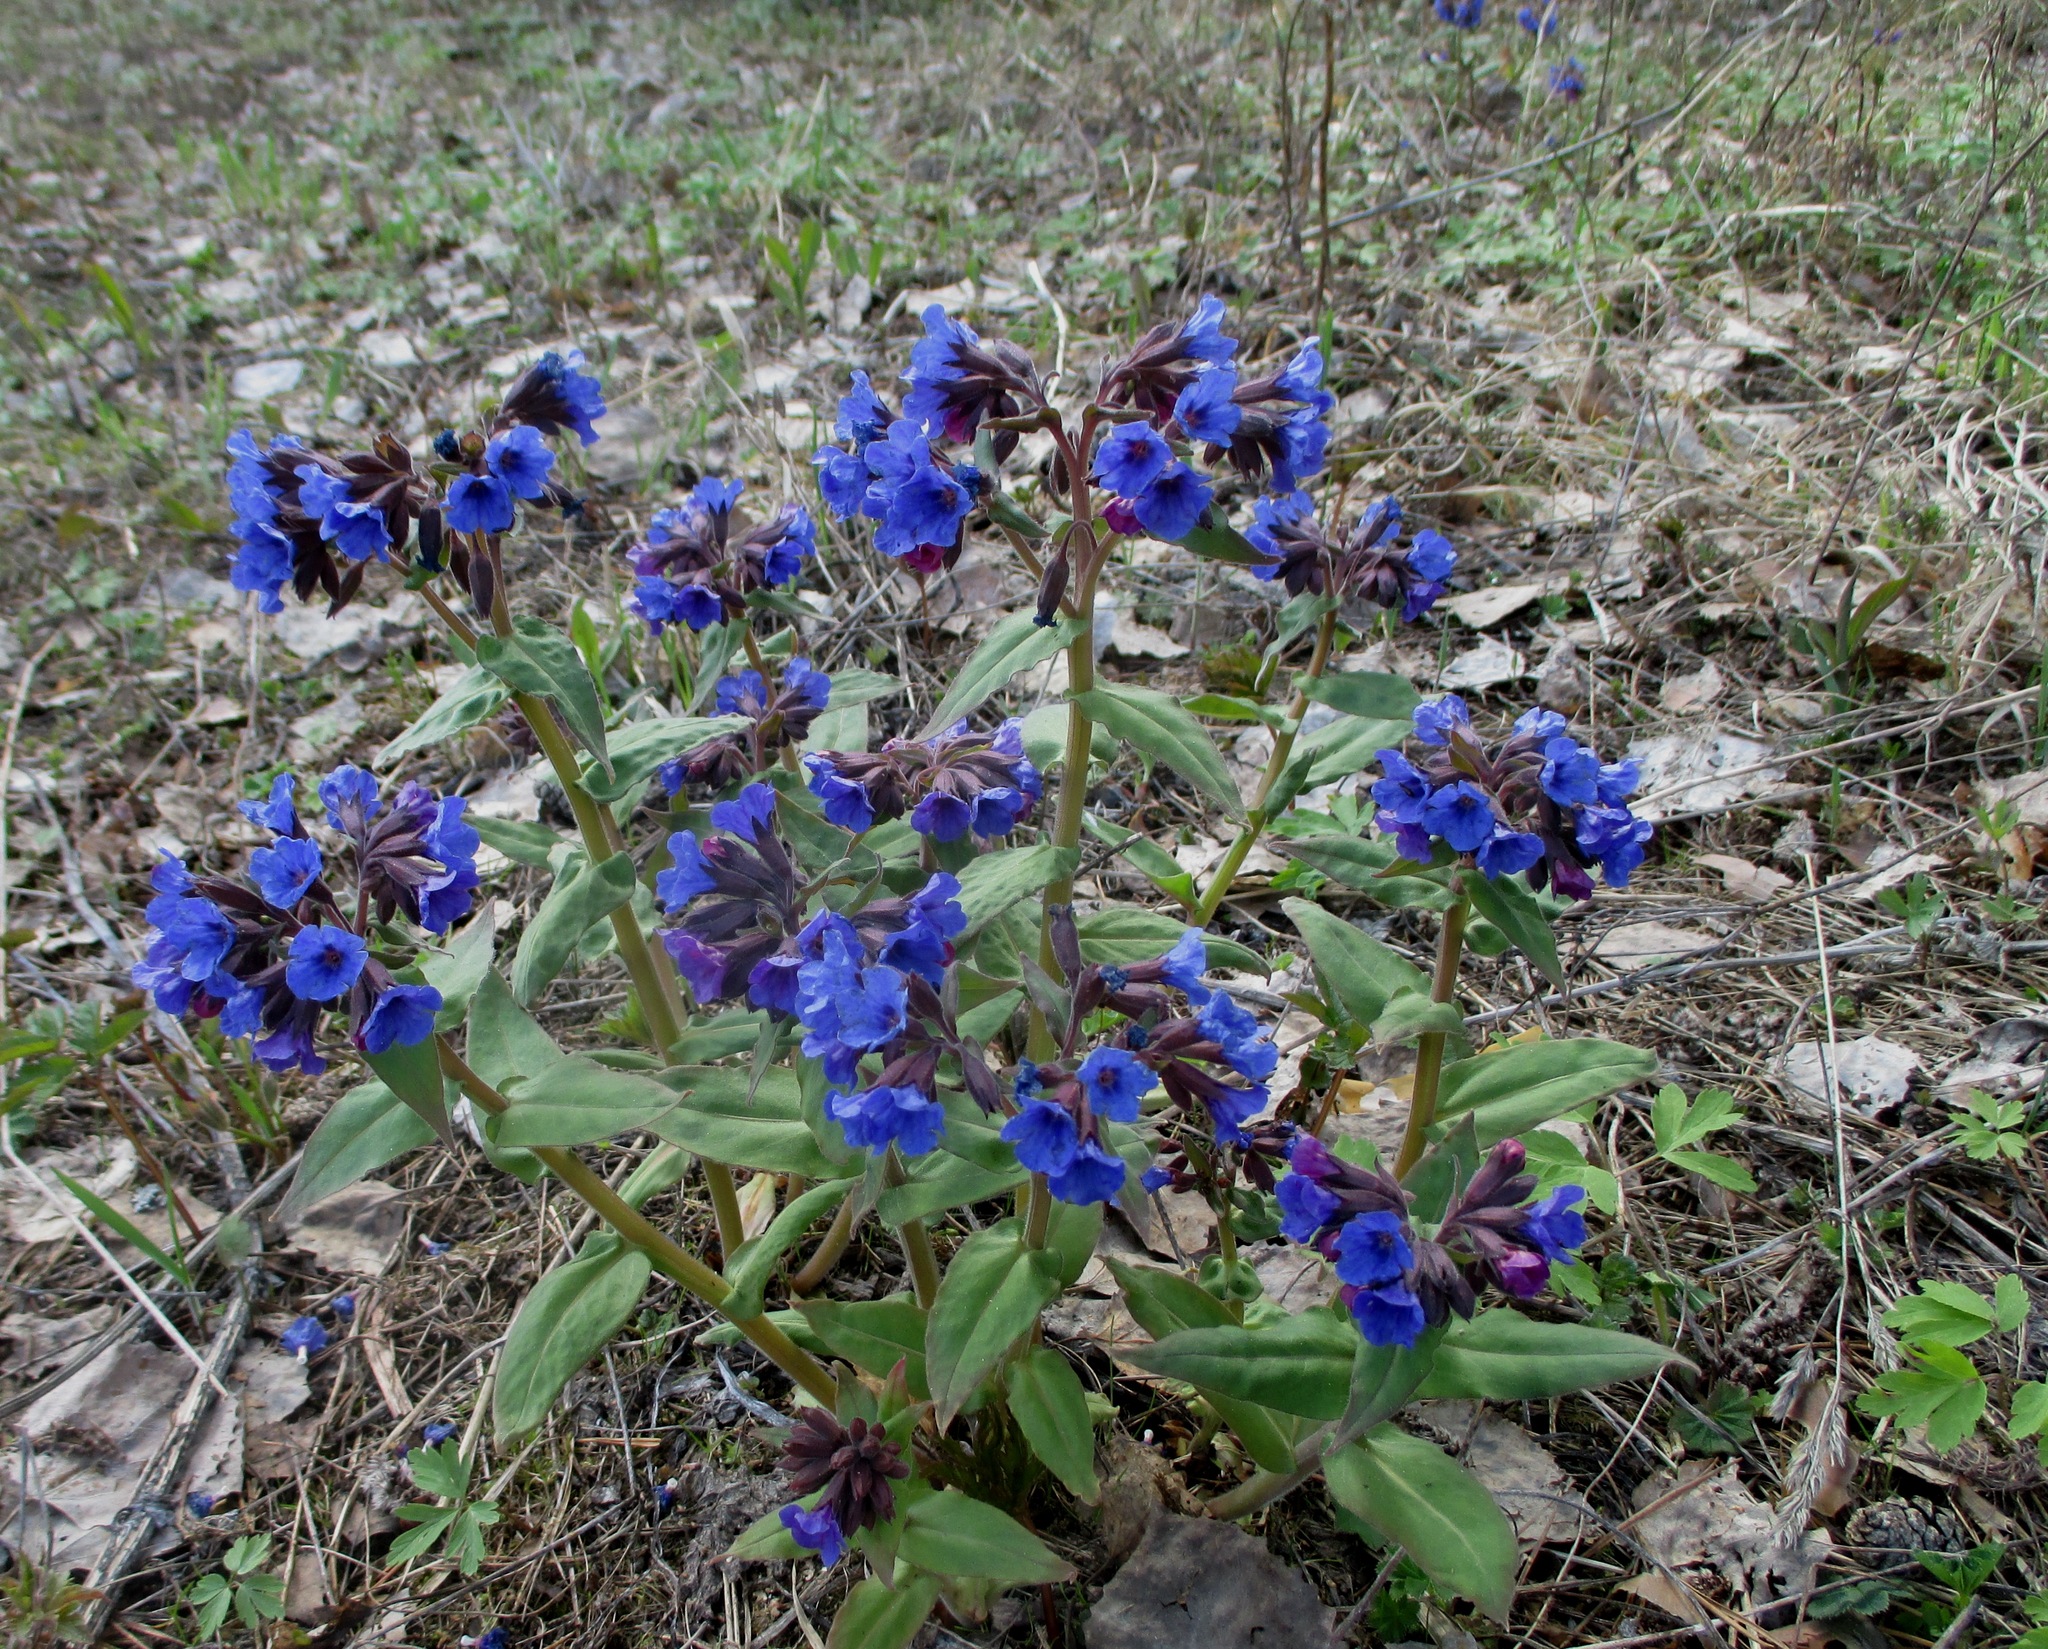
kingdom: Plantae
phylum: Tracheophyta
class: Magnoliopsida
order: Boraginales
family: Boraginaceae
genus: Pulmonaria
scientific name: Pulmonaria mollis
